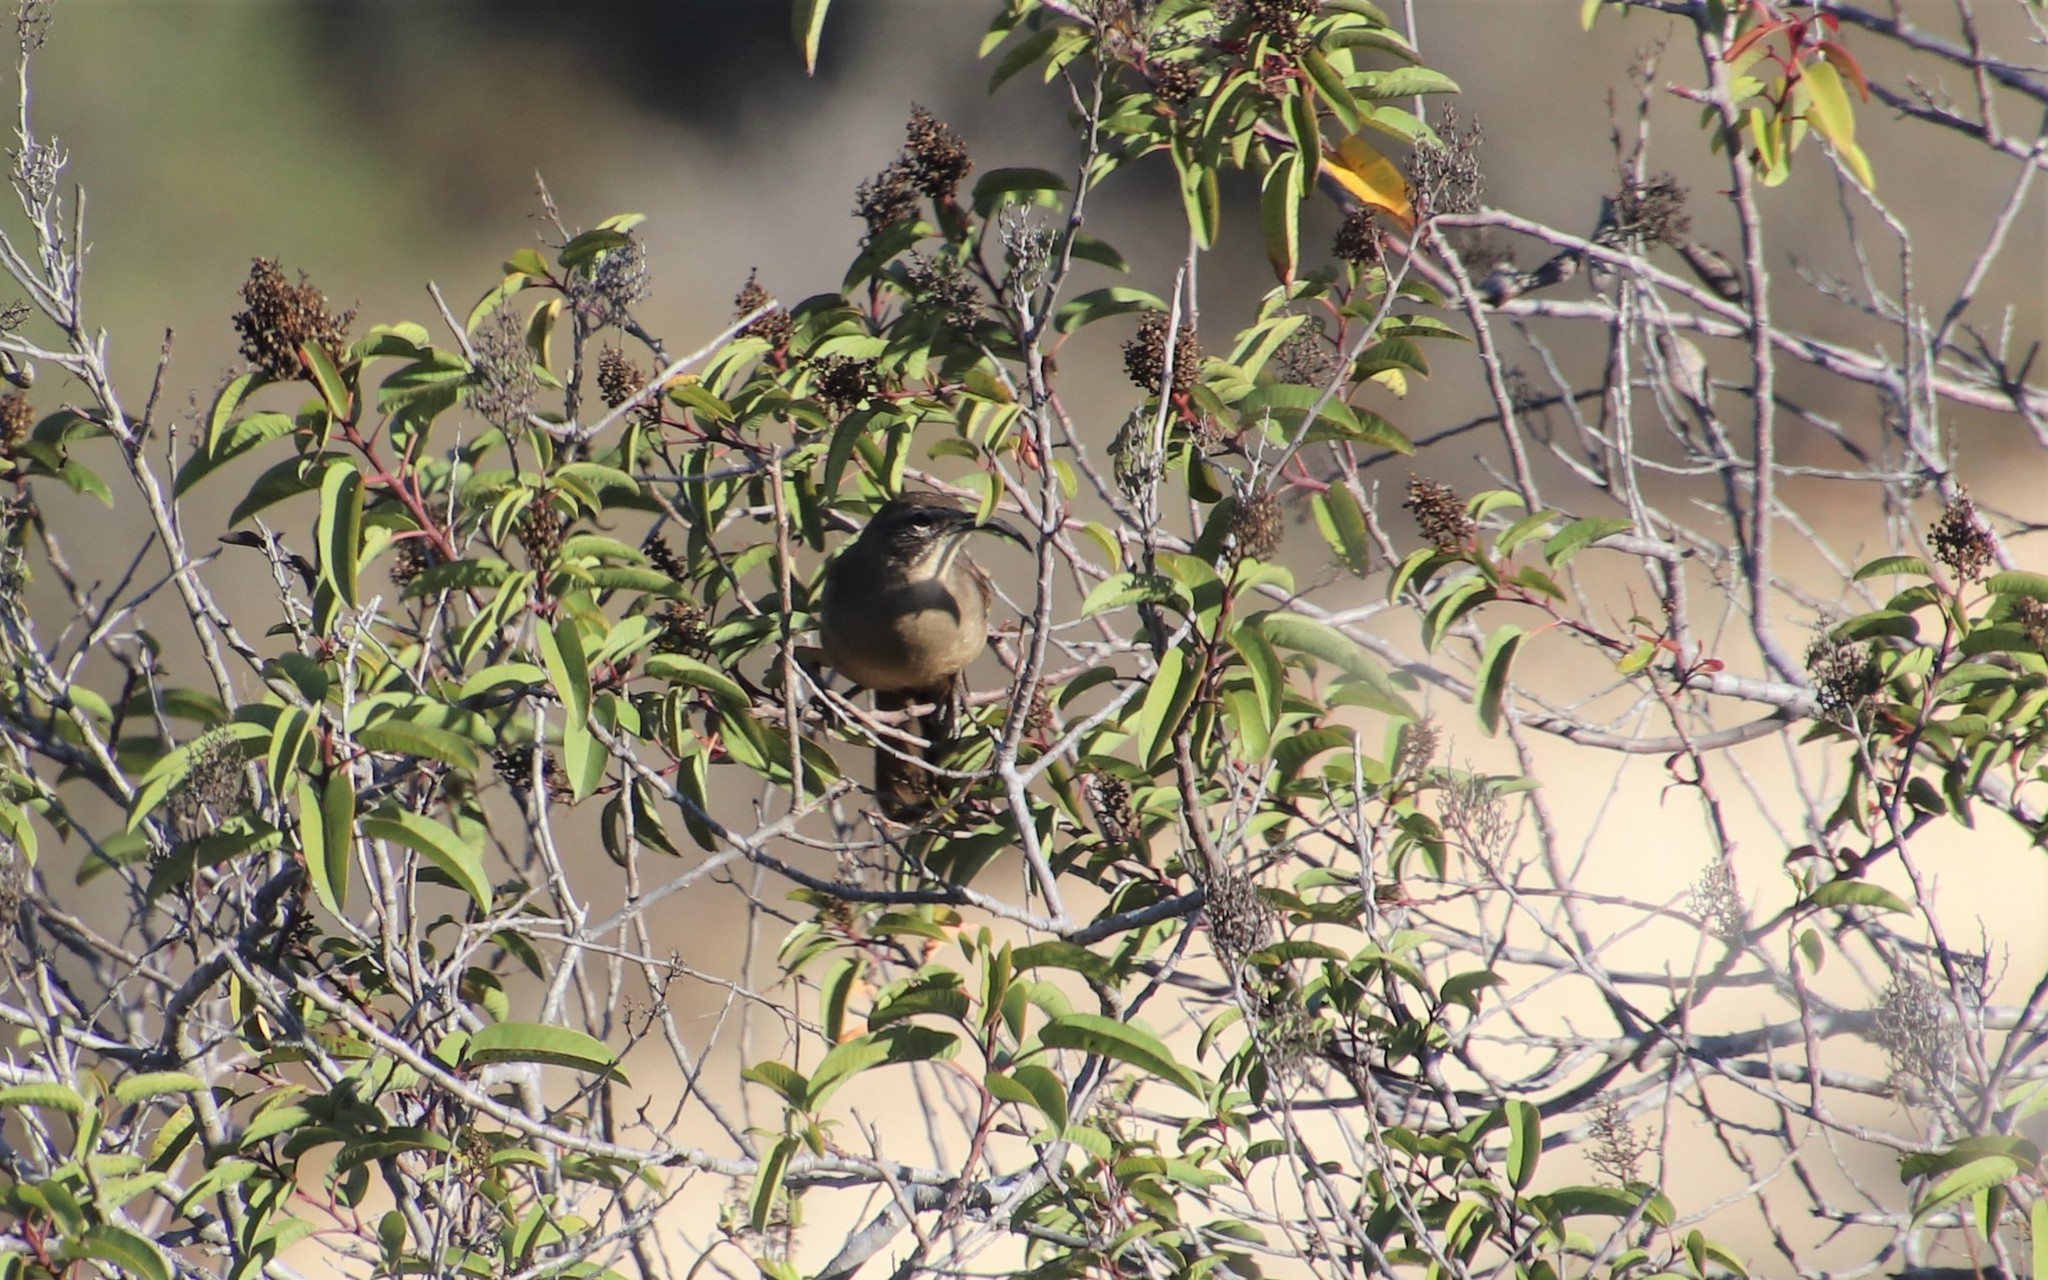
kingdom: Animalia
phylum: Chordata
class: Aves
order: Passeriformes
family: Mimidae
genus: Toxostoma
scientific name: Toxostoma redivivum
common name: California thrasher
